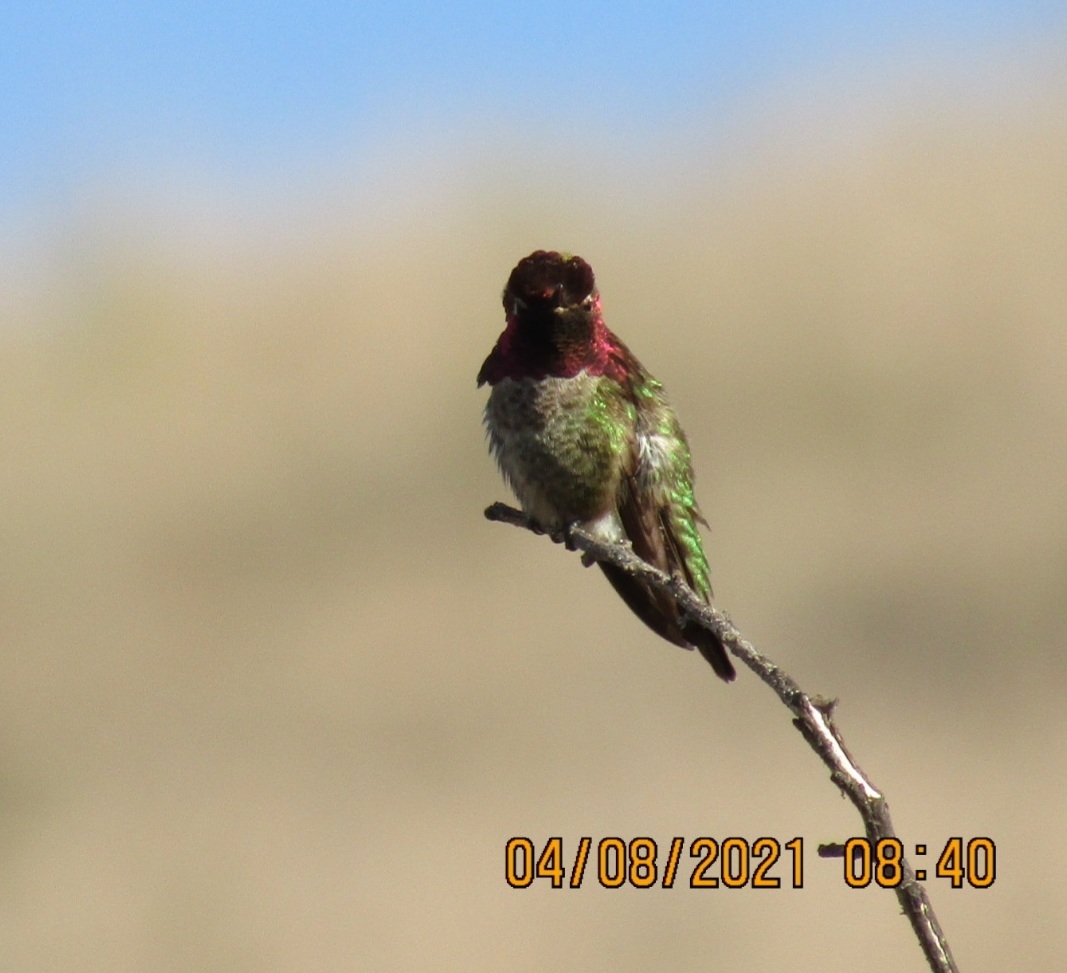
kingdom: Animalia
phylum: Chordata
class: Aves
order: Apodiformes
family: Trochilidae
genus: Calypte
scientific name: Calypte anna
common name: Anna's hummingbird
